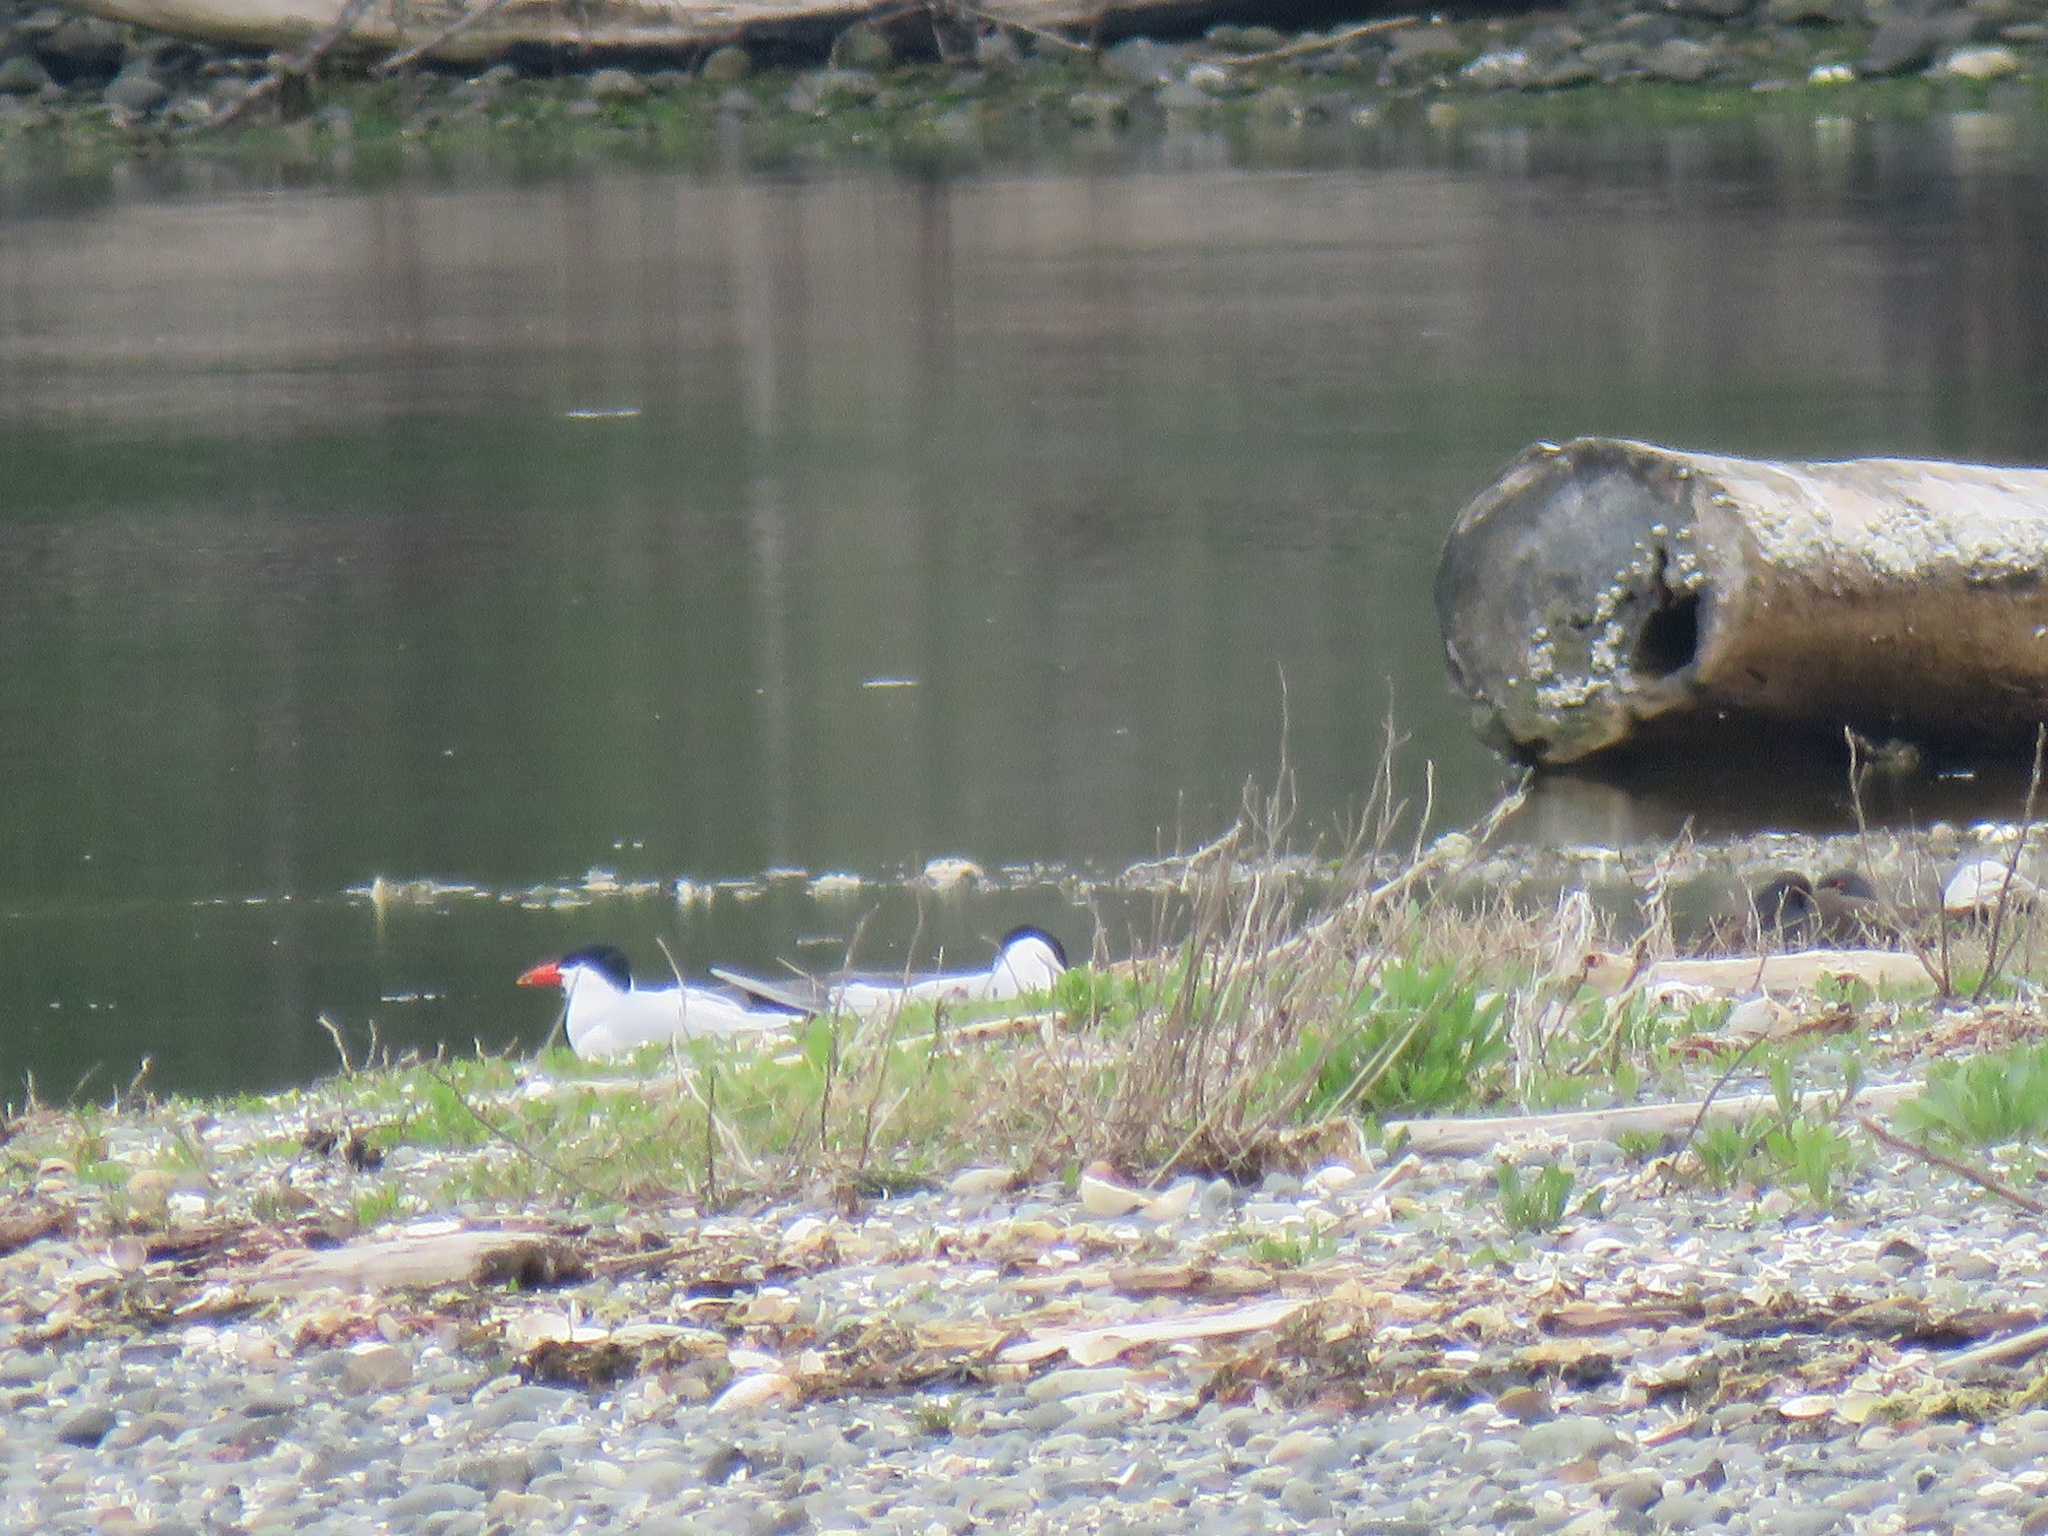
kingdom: Animalia
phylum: Chordata
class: Aves
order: Charadriiformes
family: Laridae
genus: Hydroprogne
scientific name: Hydroprogne caspia
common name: Caspian tern
